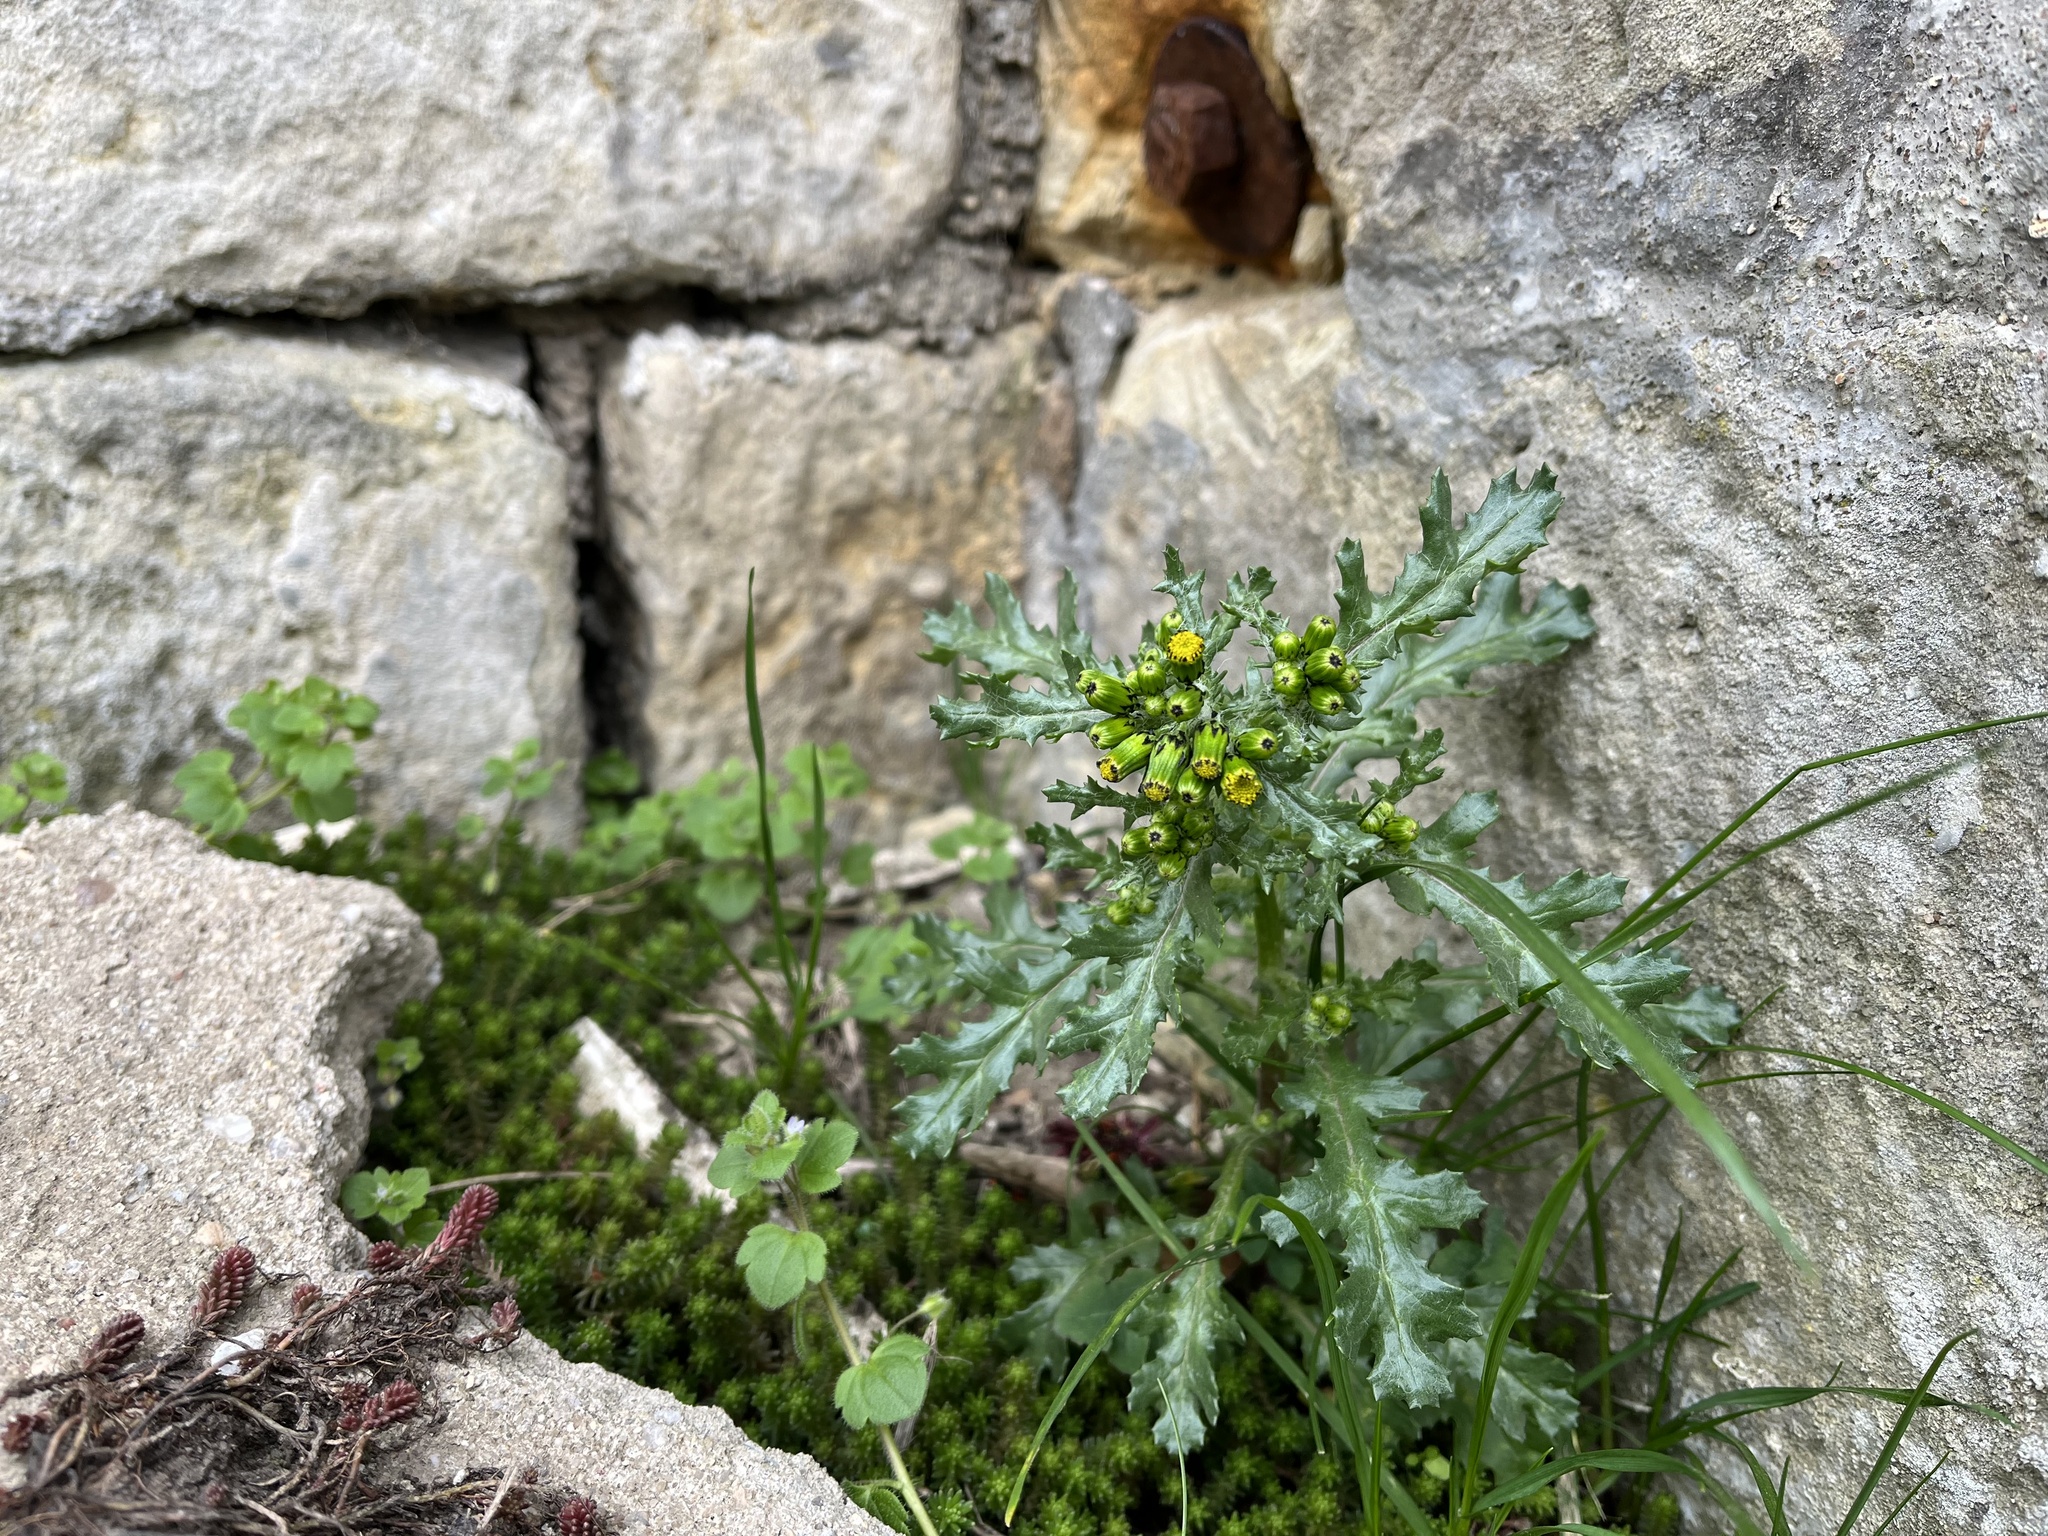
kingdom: Plantae
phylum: Tracheophyta
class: Magnoliopsida
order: Asterales
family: Asteraceae
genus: Senecio
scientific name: Senecio vulgaris
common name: Old-man-in-the-spring
